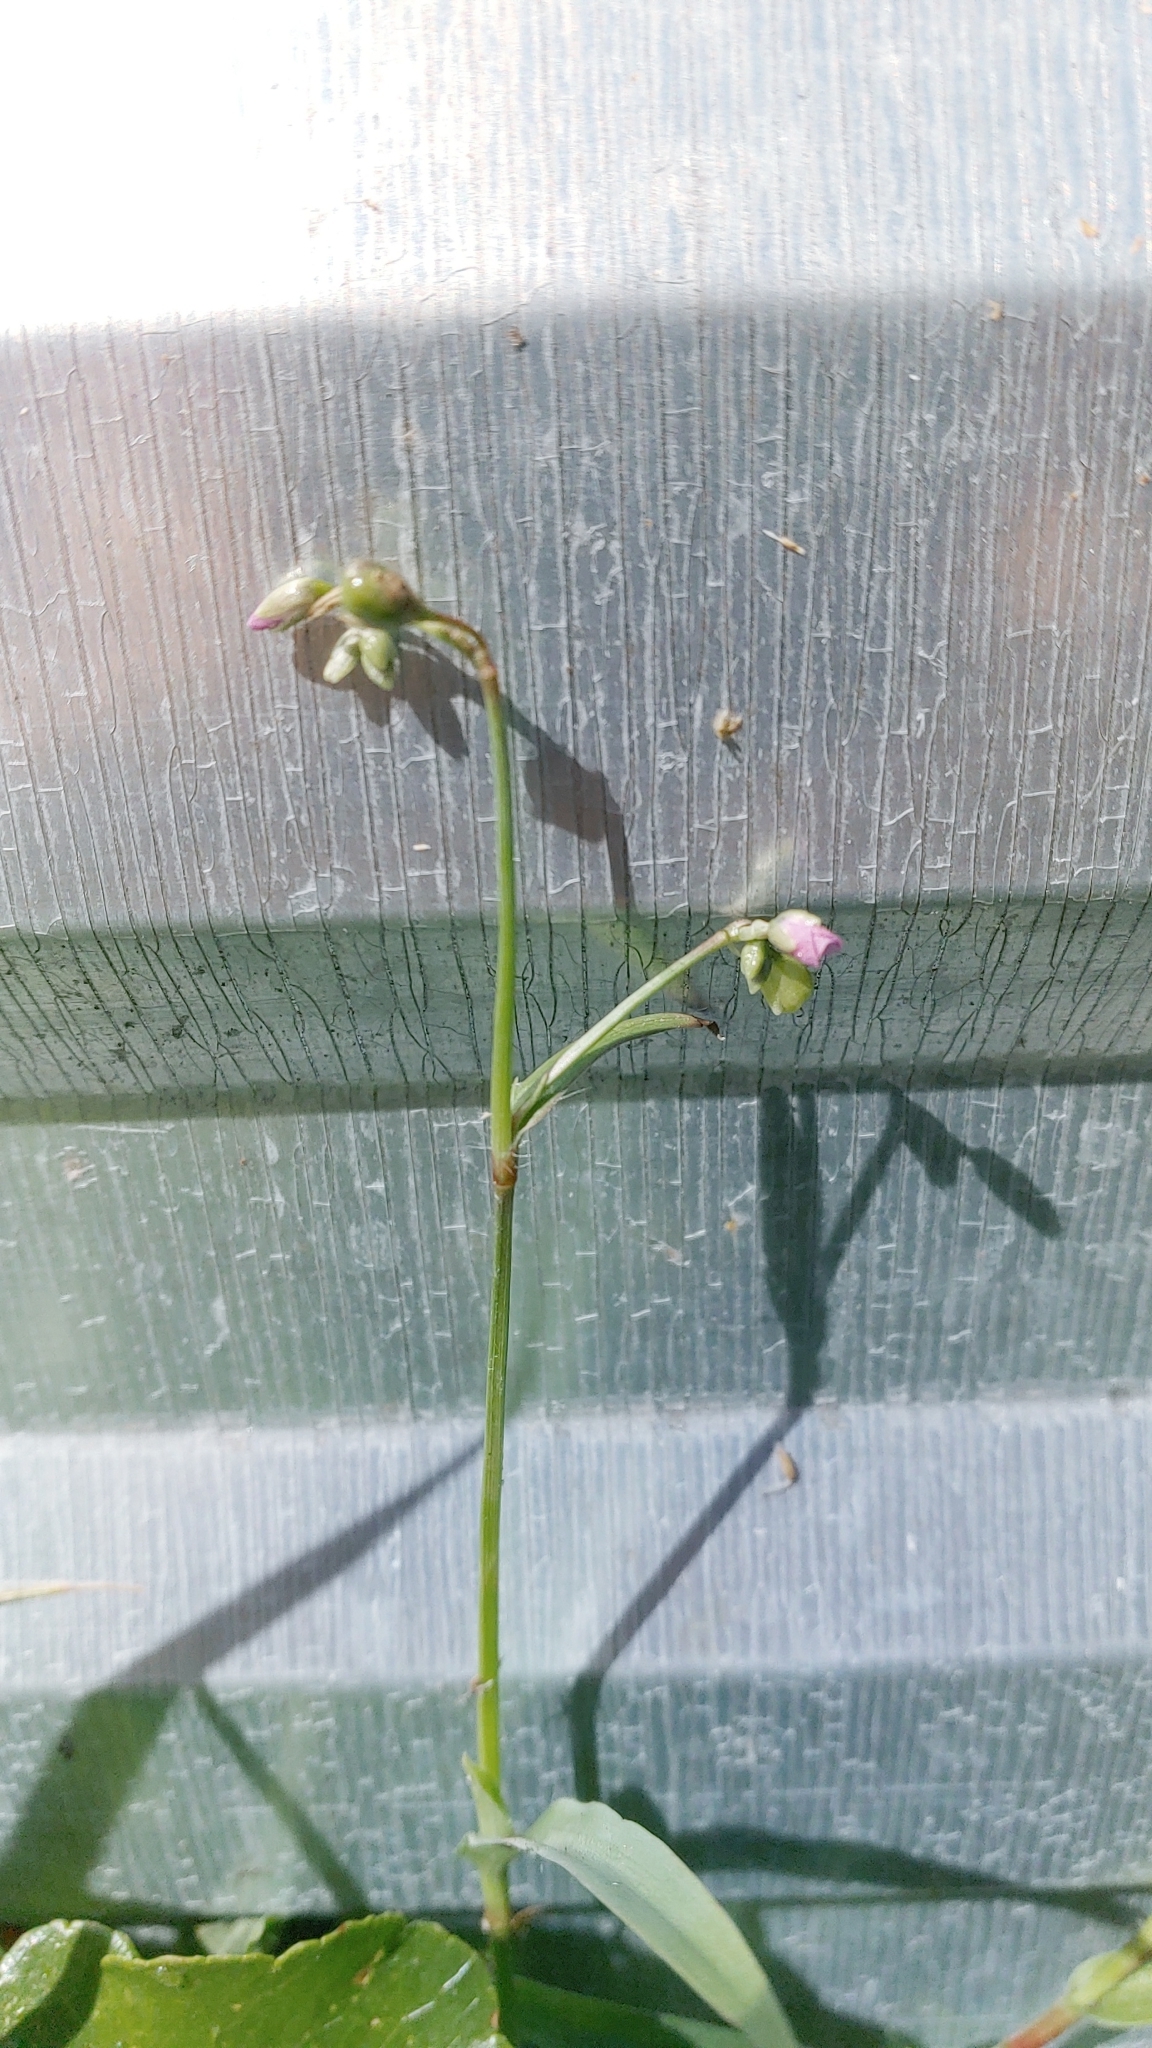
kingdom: Plantae
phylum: Tracheophyta
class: Liliopsida
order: Commelinales
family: Commelinaceae
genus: Murdannia
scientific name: Murdannia nudiflora
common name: Nakedstem dewflower
